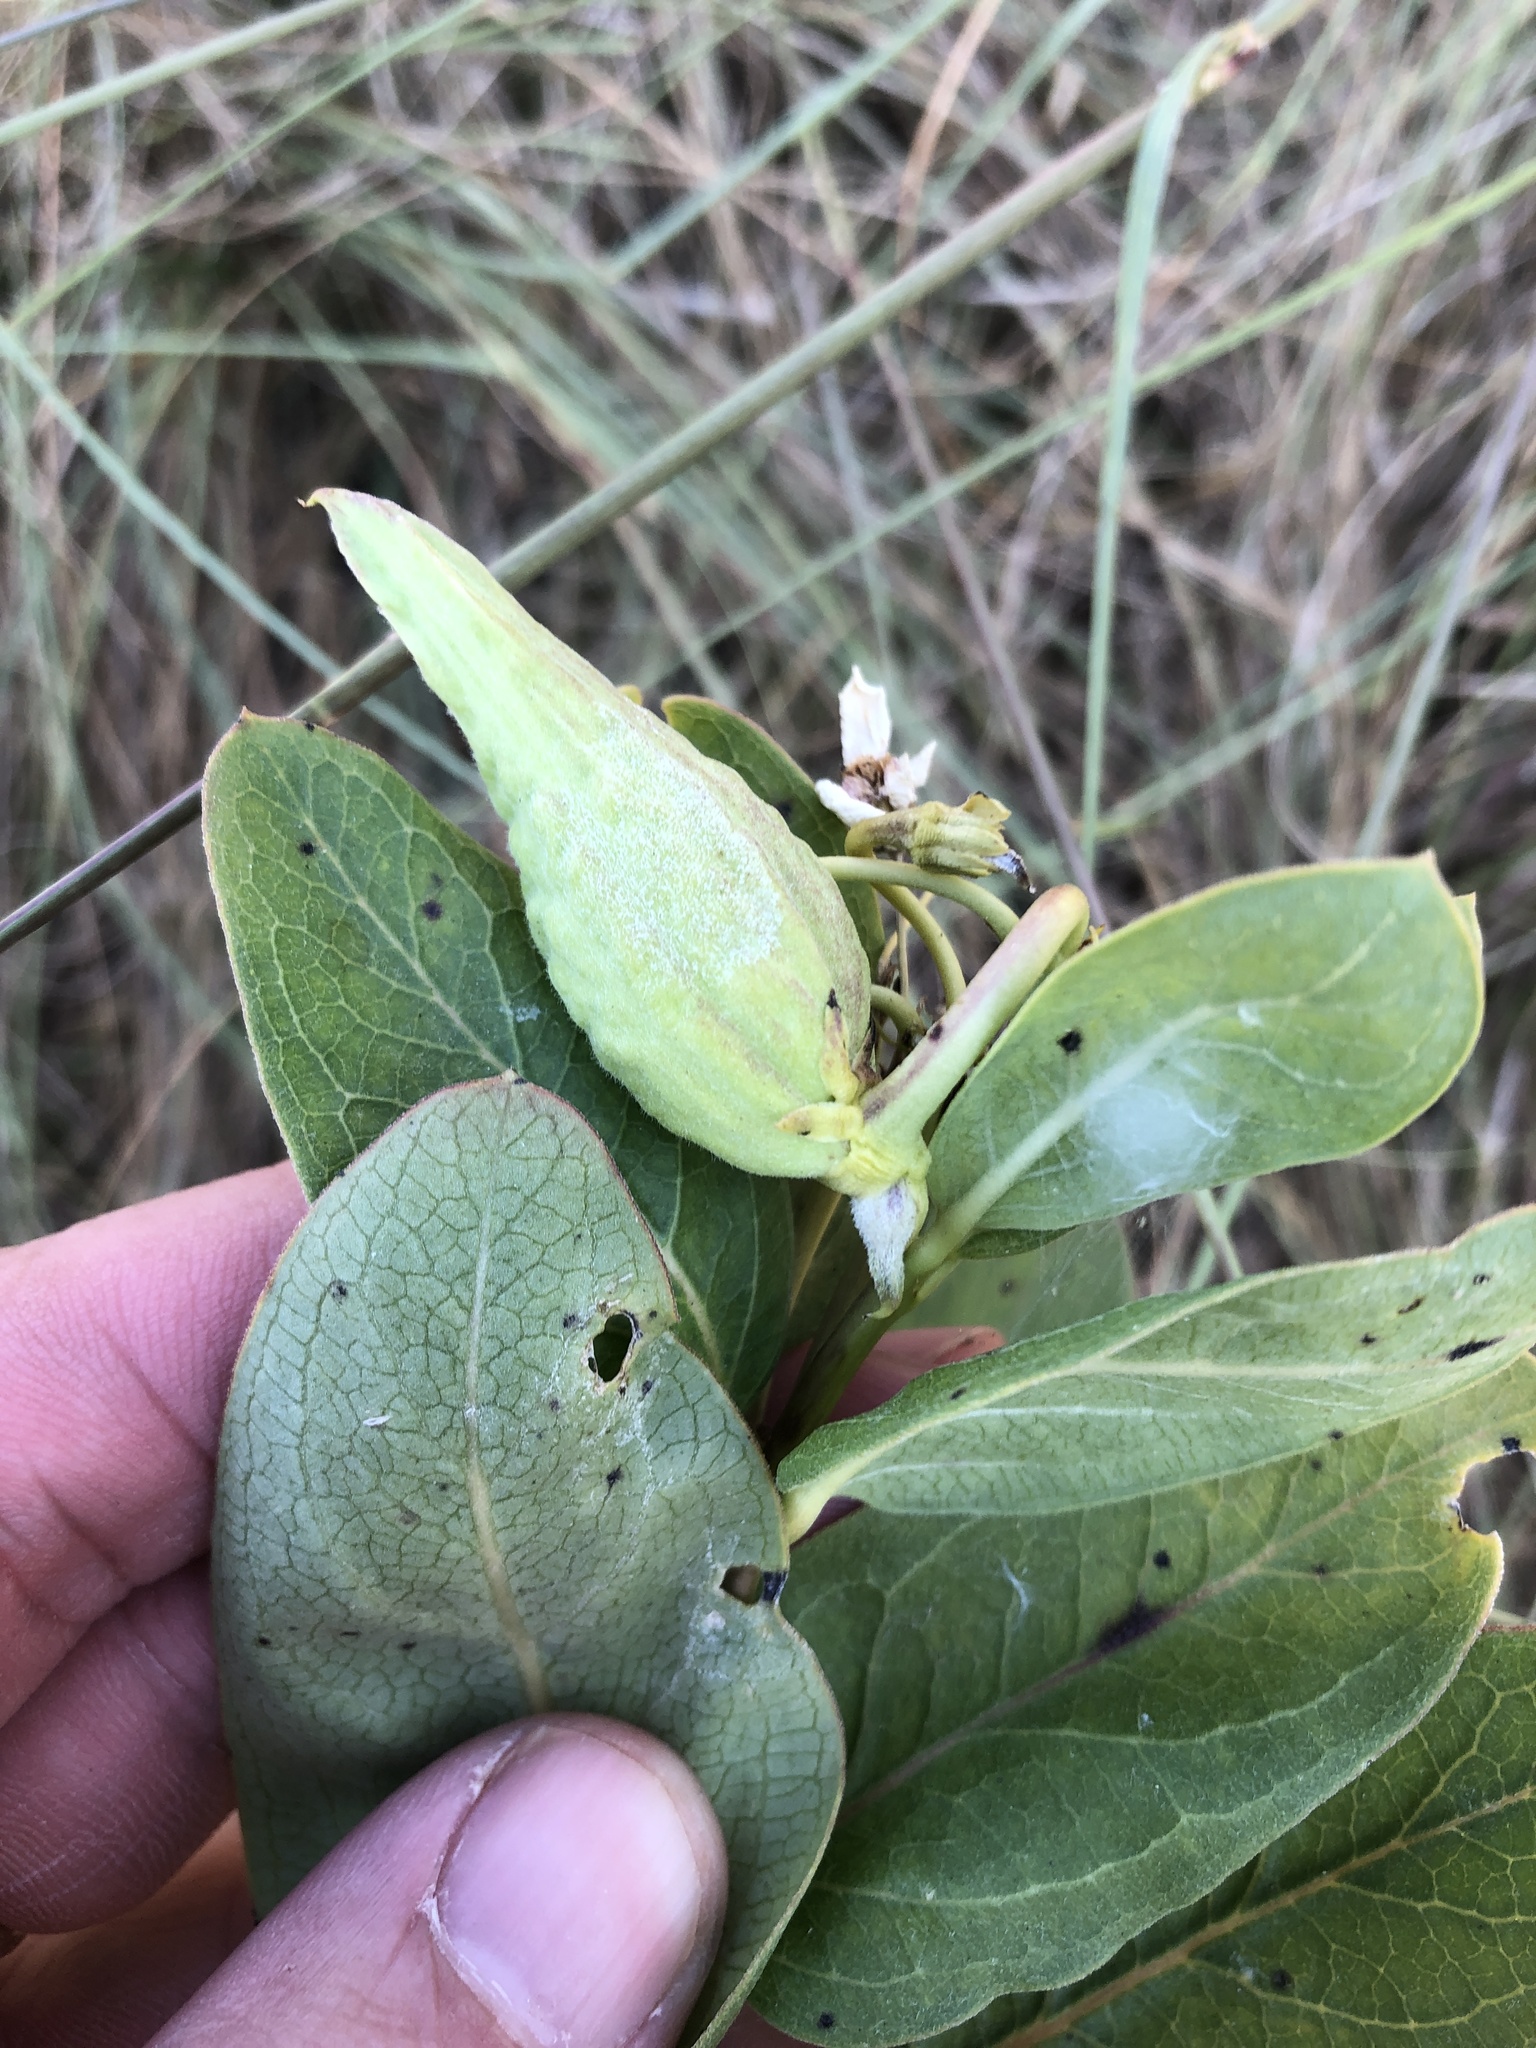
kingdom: Plantae
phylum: Tracheophyta
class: Magnoliopsida
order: Gentianales
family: Apocynaceae
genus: Asclepias
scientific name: Asclepias viridis
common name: Antelope-horns
